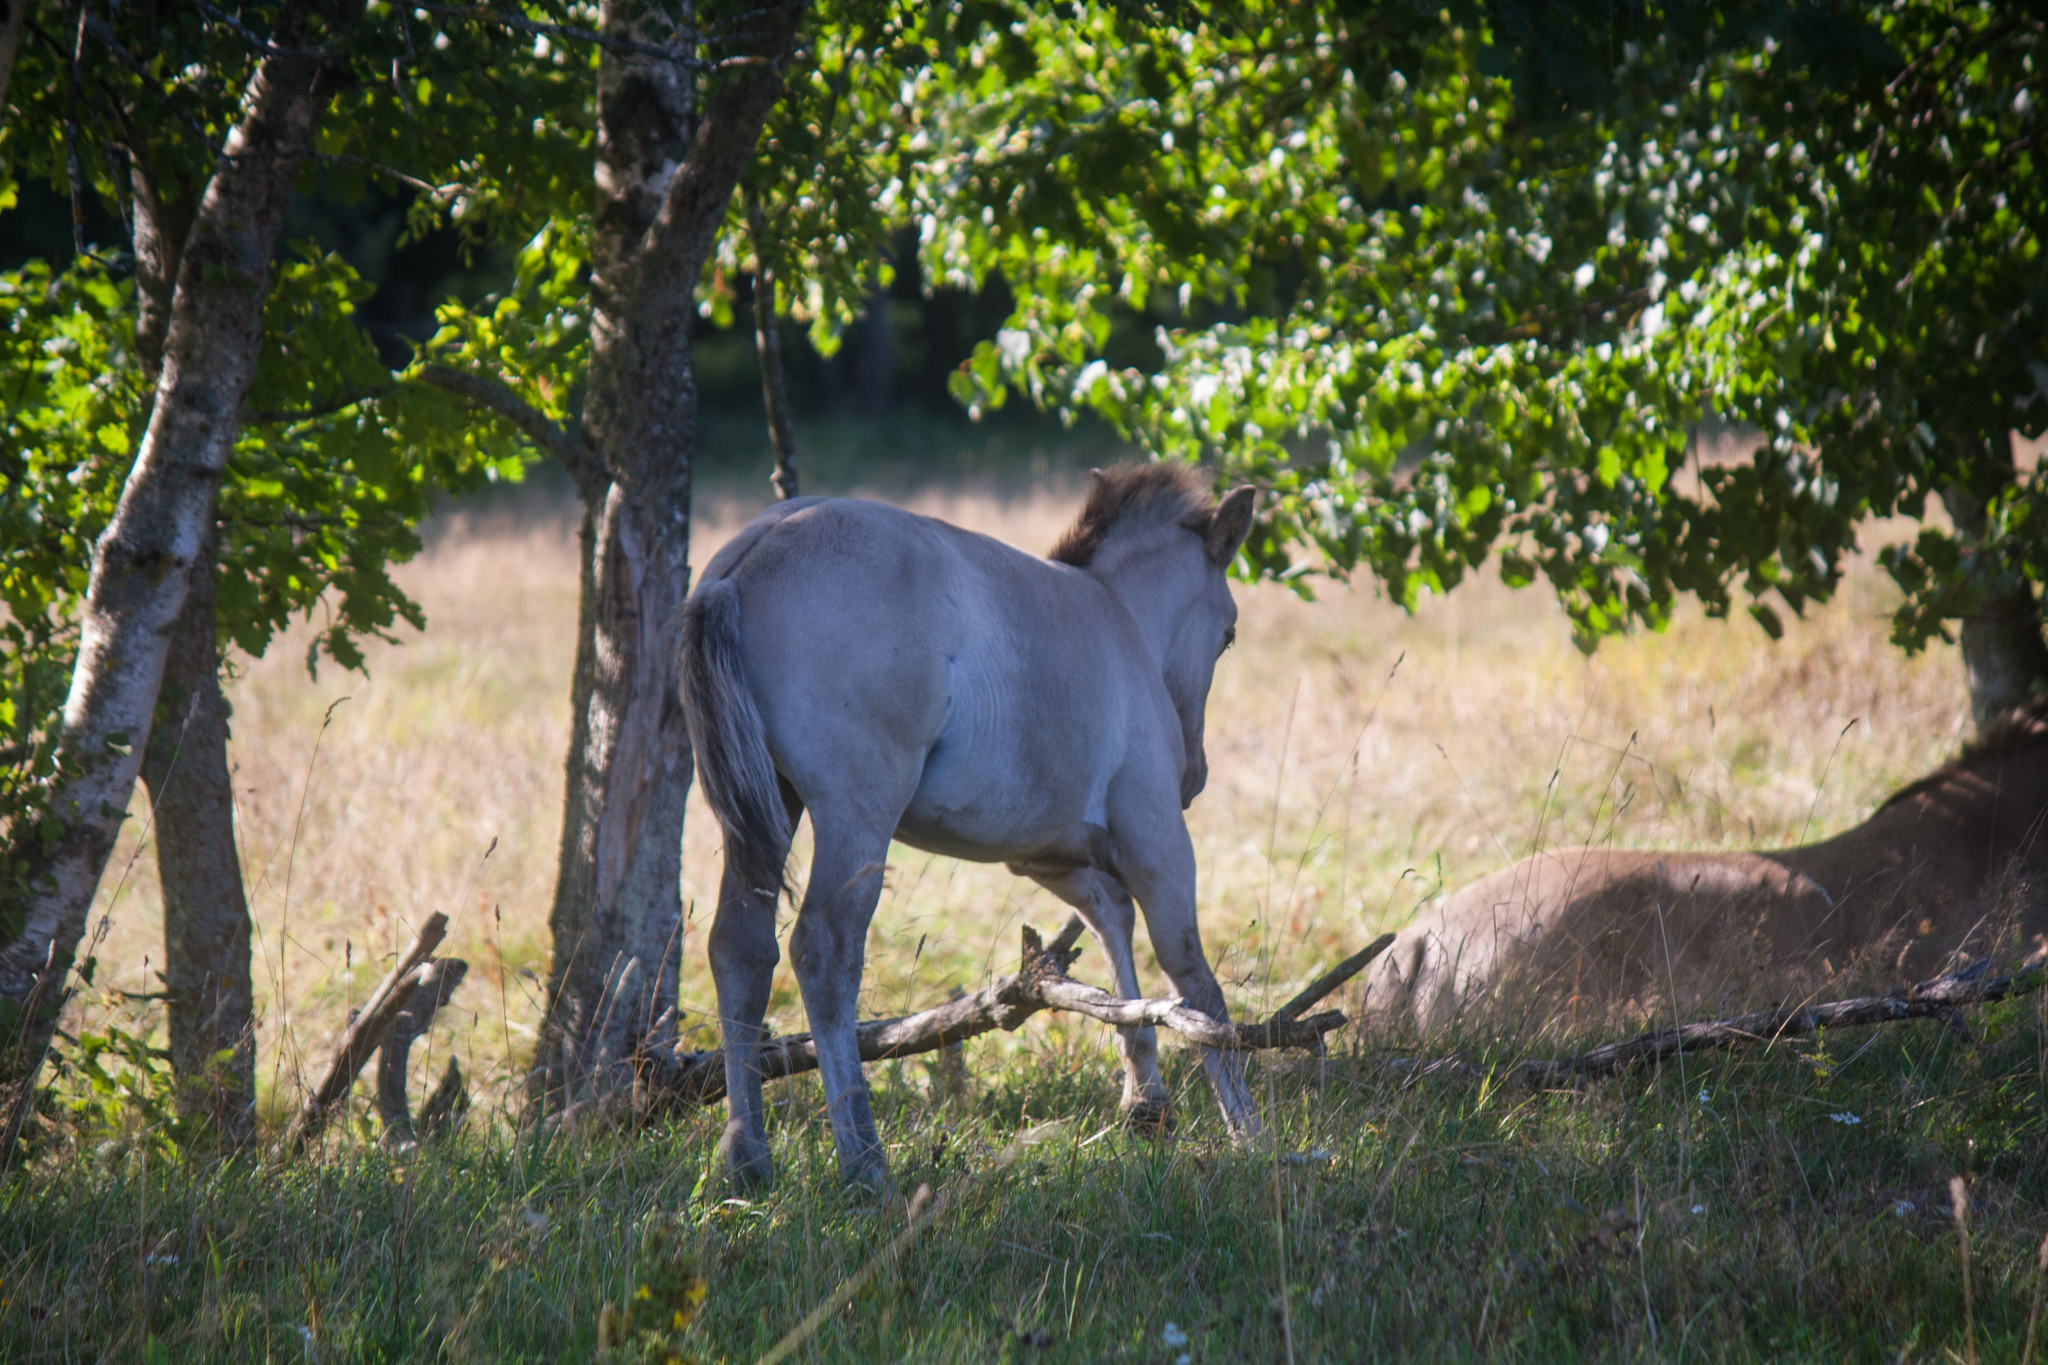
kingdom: Animalia
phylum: Chordata
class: Mammalia
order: Perissodactyla
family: Equidae
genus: Equus
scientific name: Equus caballus
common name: Horse
